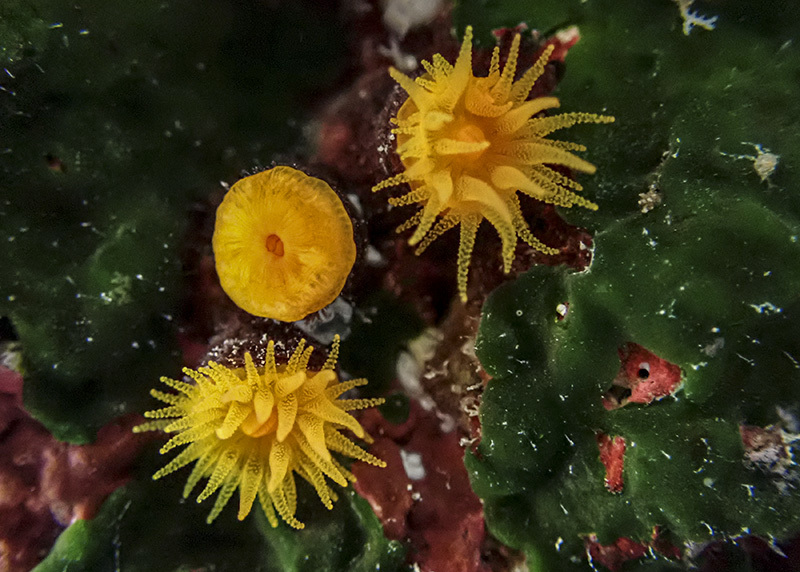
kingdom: Animalia
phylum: Cnidaria
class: Anthozoa
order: Scleractinia
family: Dendrophylliidae
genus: Astroides
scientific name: Astroides calycularis
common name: Star coral
